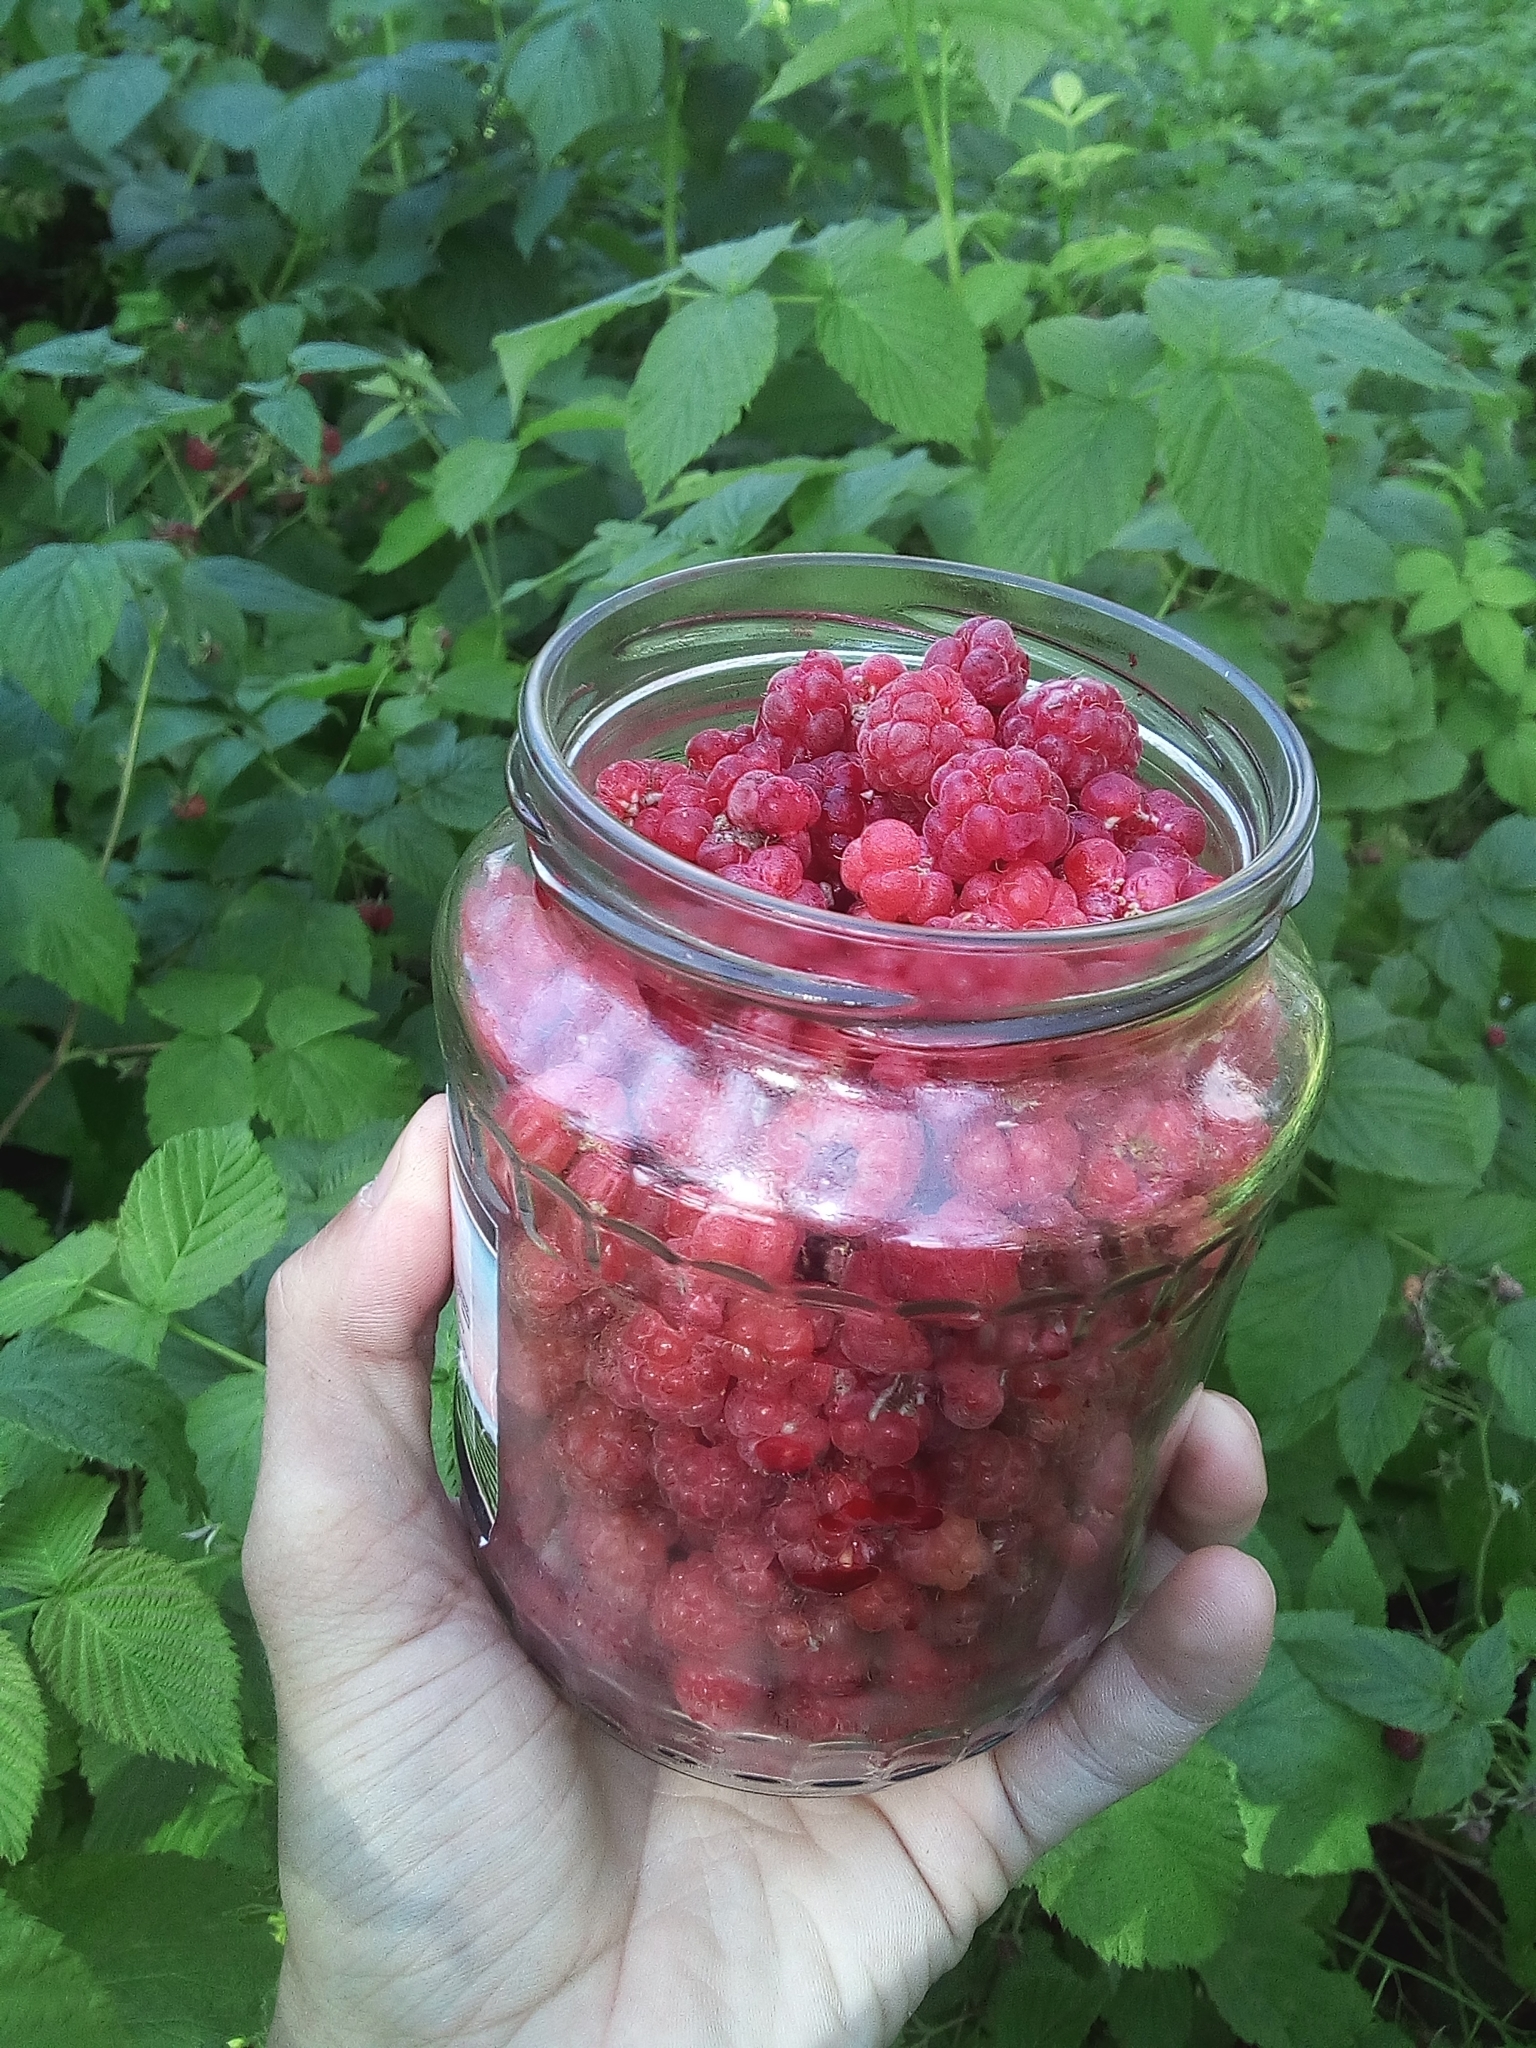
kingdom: Plantae
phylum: Tracheophyta
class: Magnoliopsida
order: Rosales
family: Rosaceae
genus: Rubus
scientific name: Rubus idaeus
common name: Raspberry
